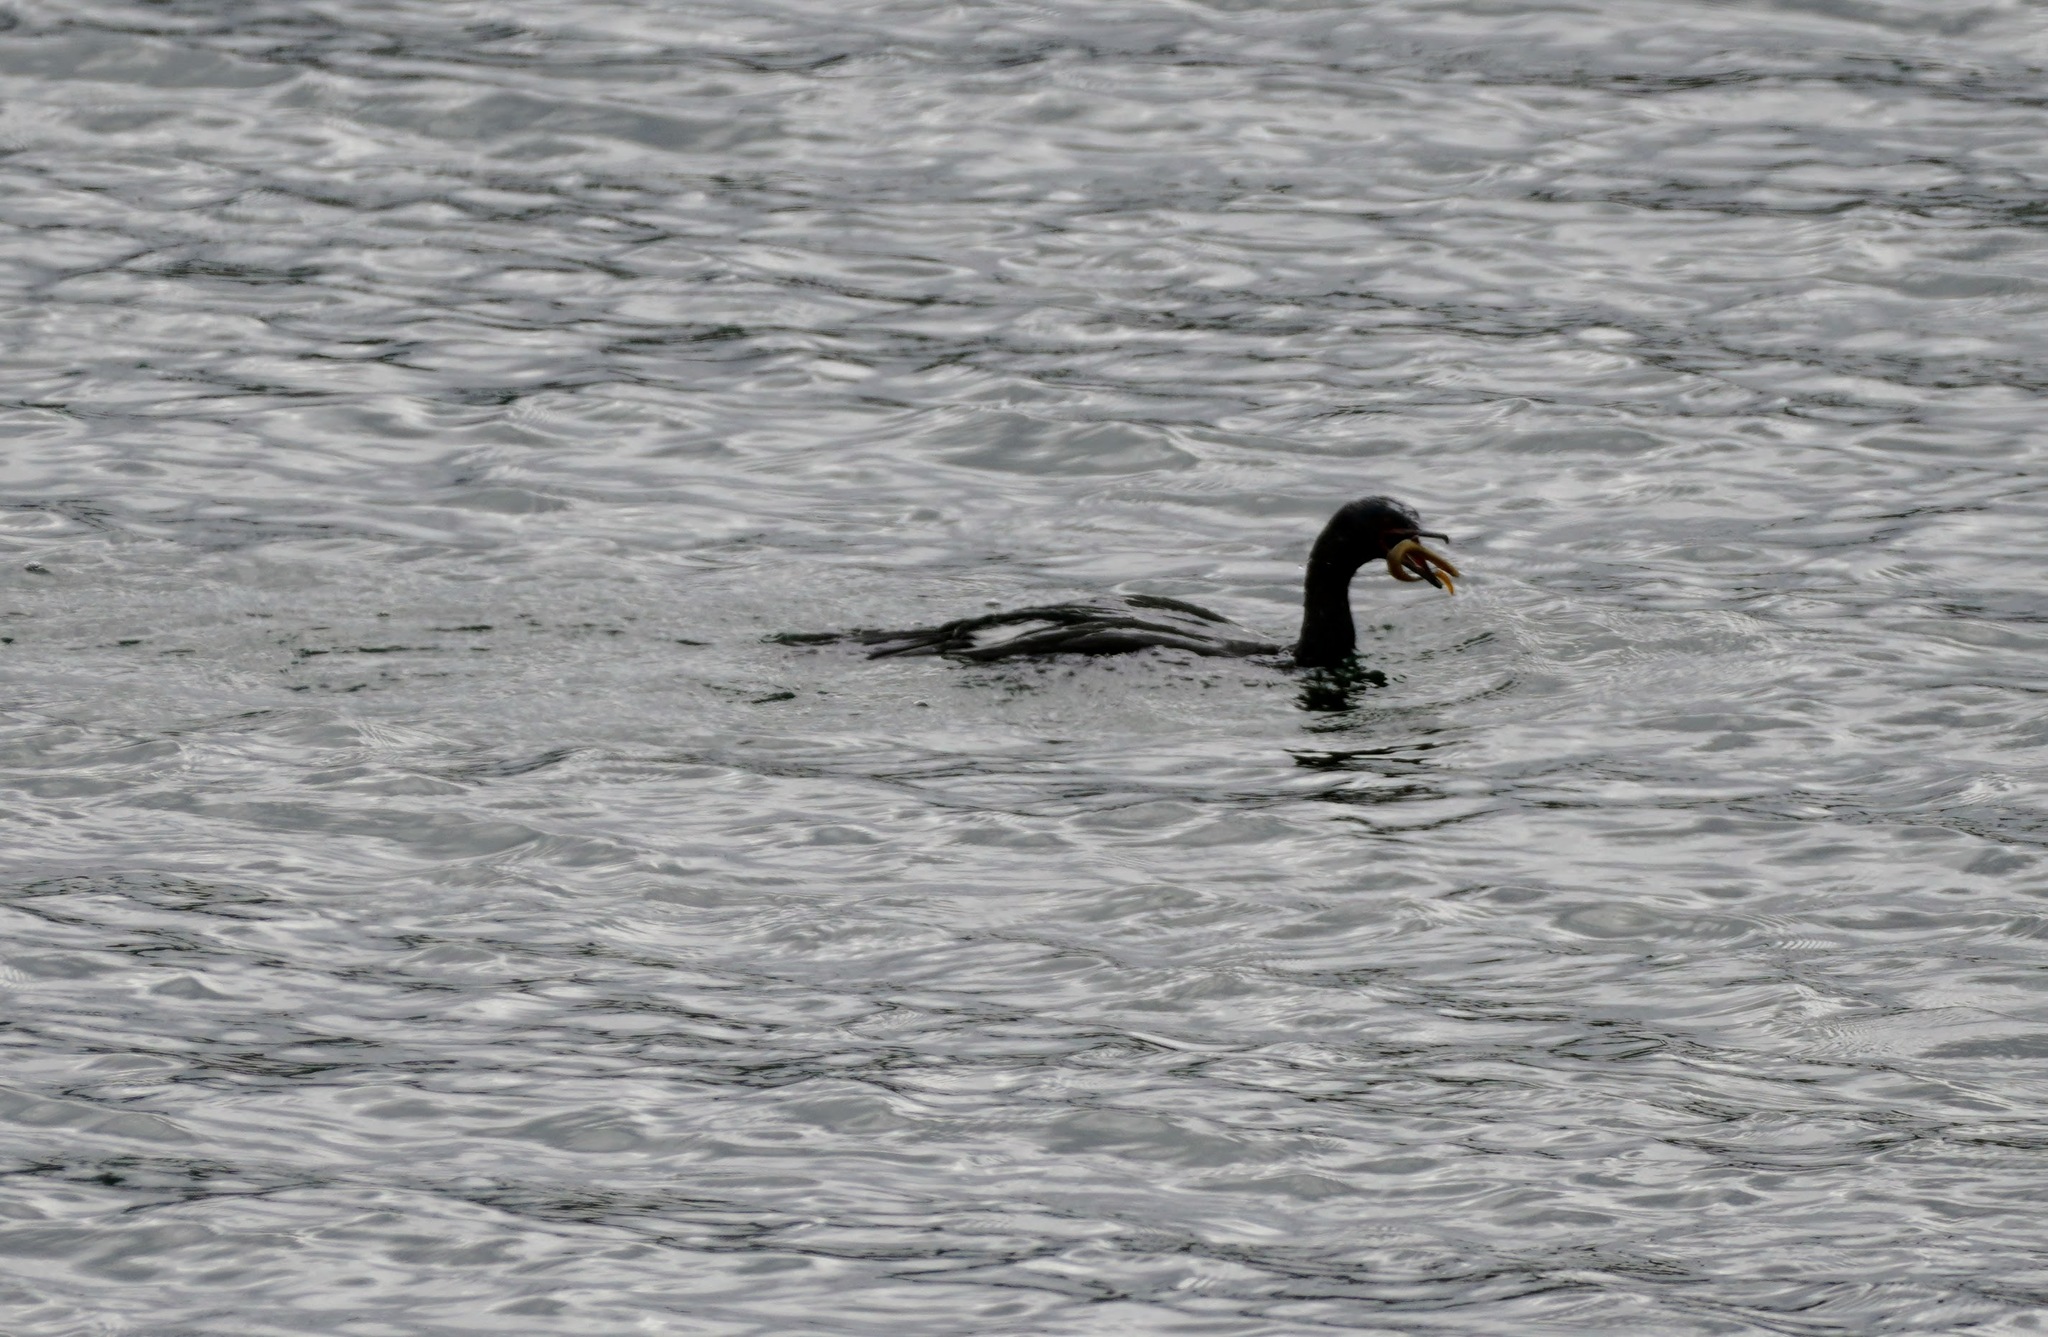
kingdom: Animalia
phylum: Chordata
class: Aves
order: Suliformes
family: Phalacrocoracidae
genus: Phalacrocorax
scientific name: Phalacrocorax pelagicus
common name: Pelagic cormorant
